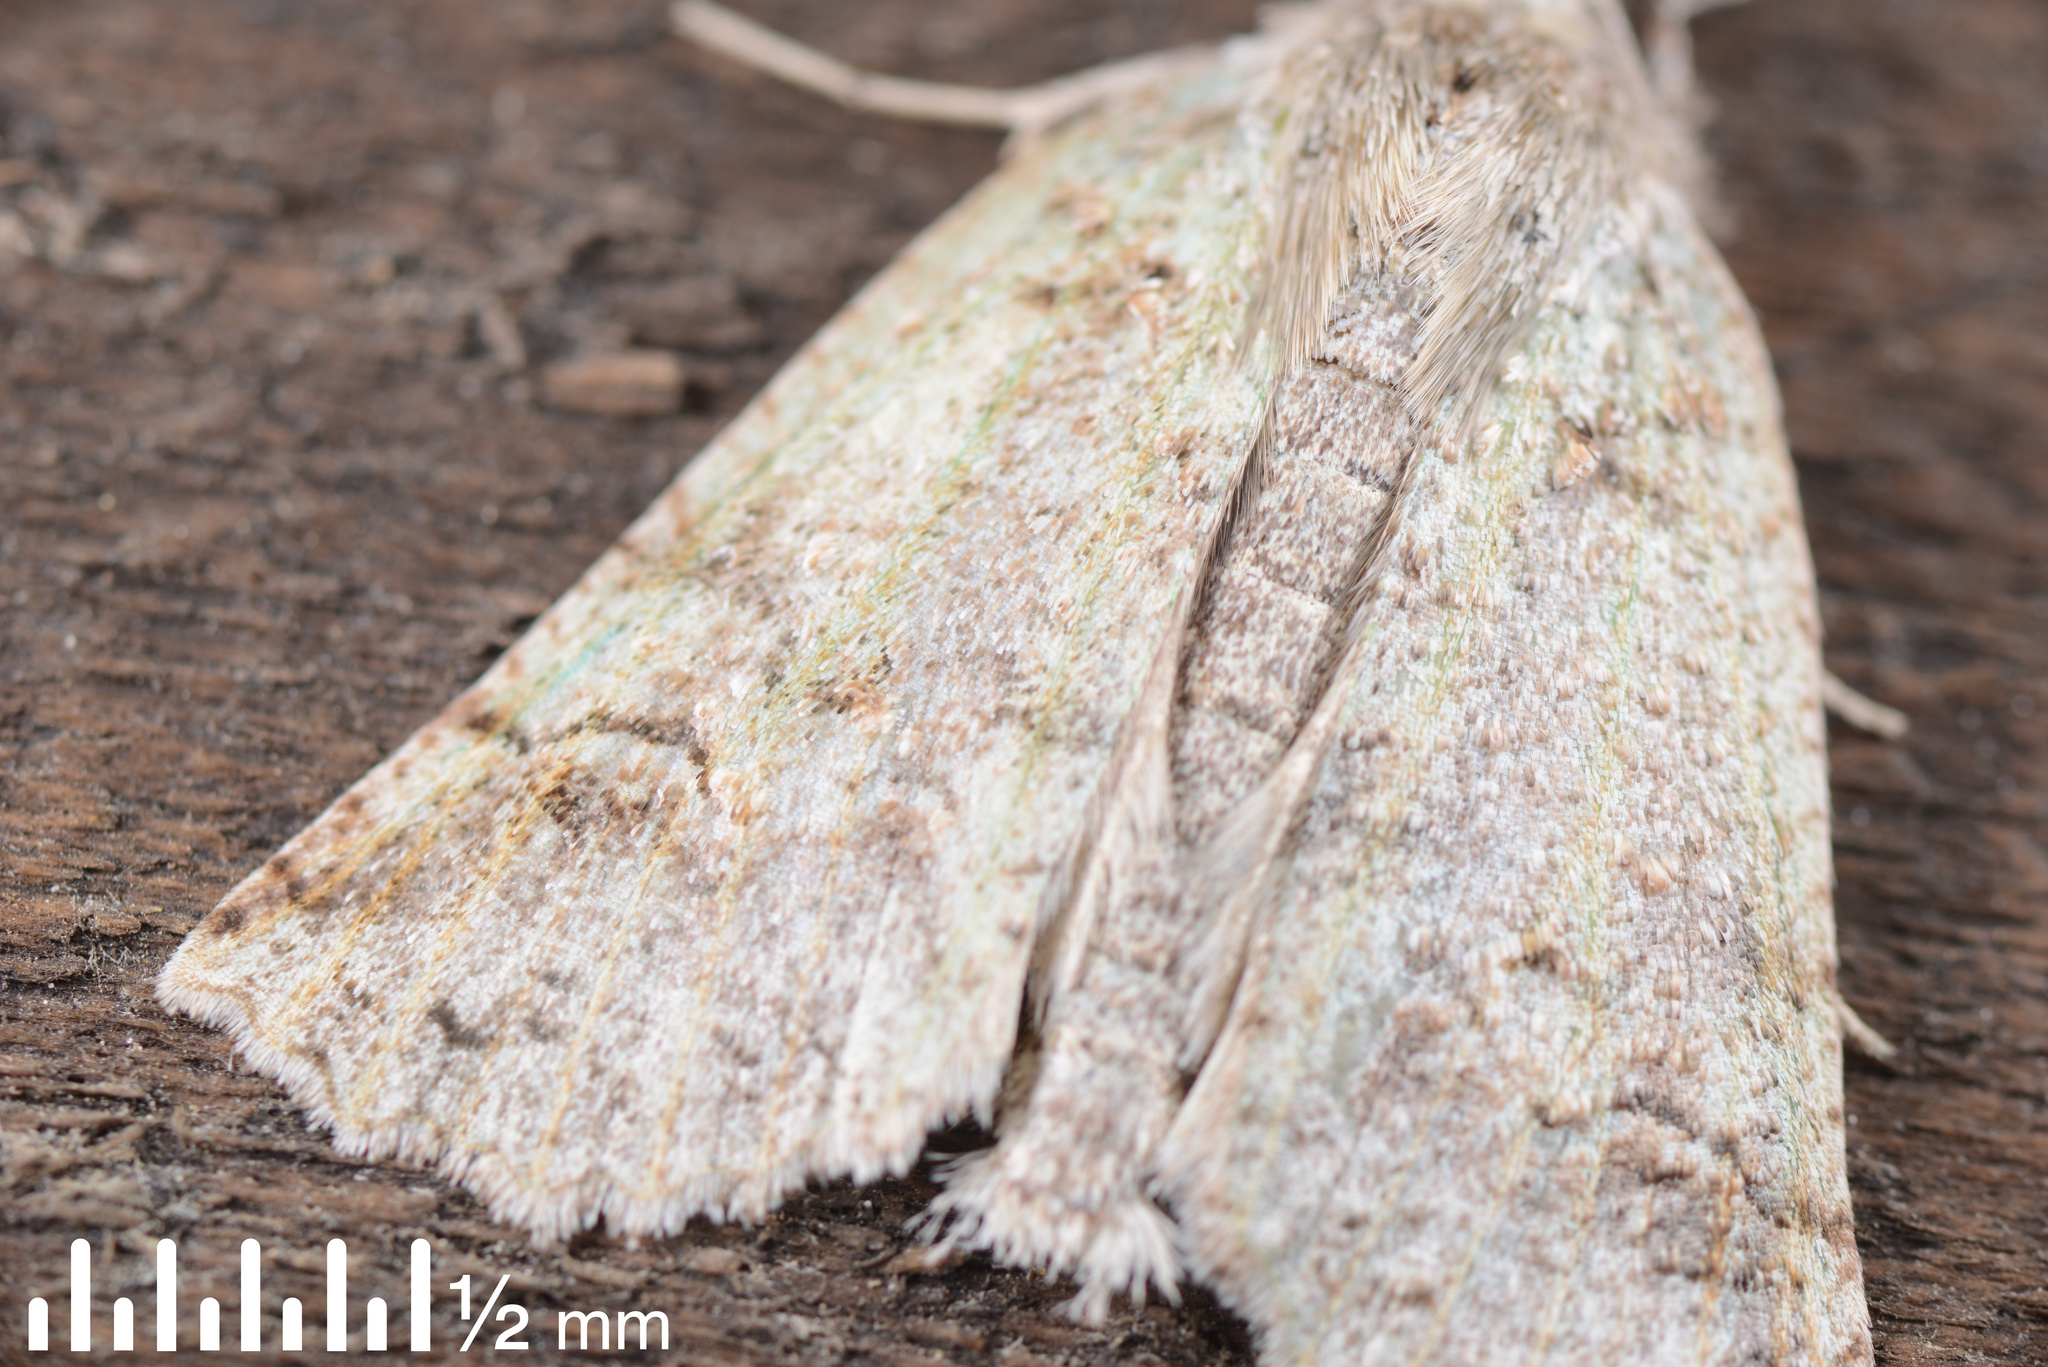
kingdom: Animalia
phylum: Arthropoda
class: Insecta
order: Lepidoptera
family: Geometridae
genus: Declana
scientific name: Declana floccosa
